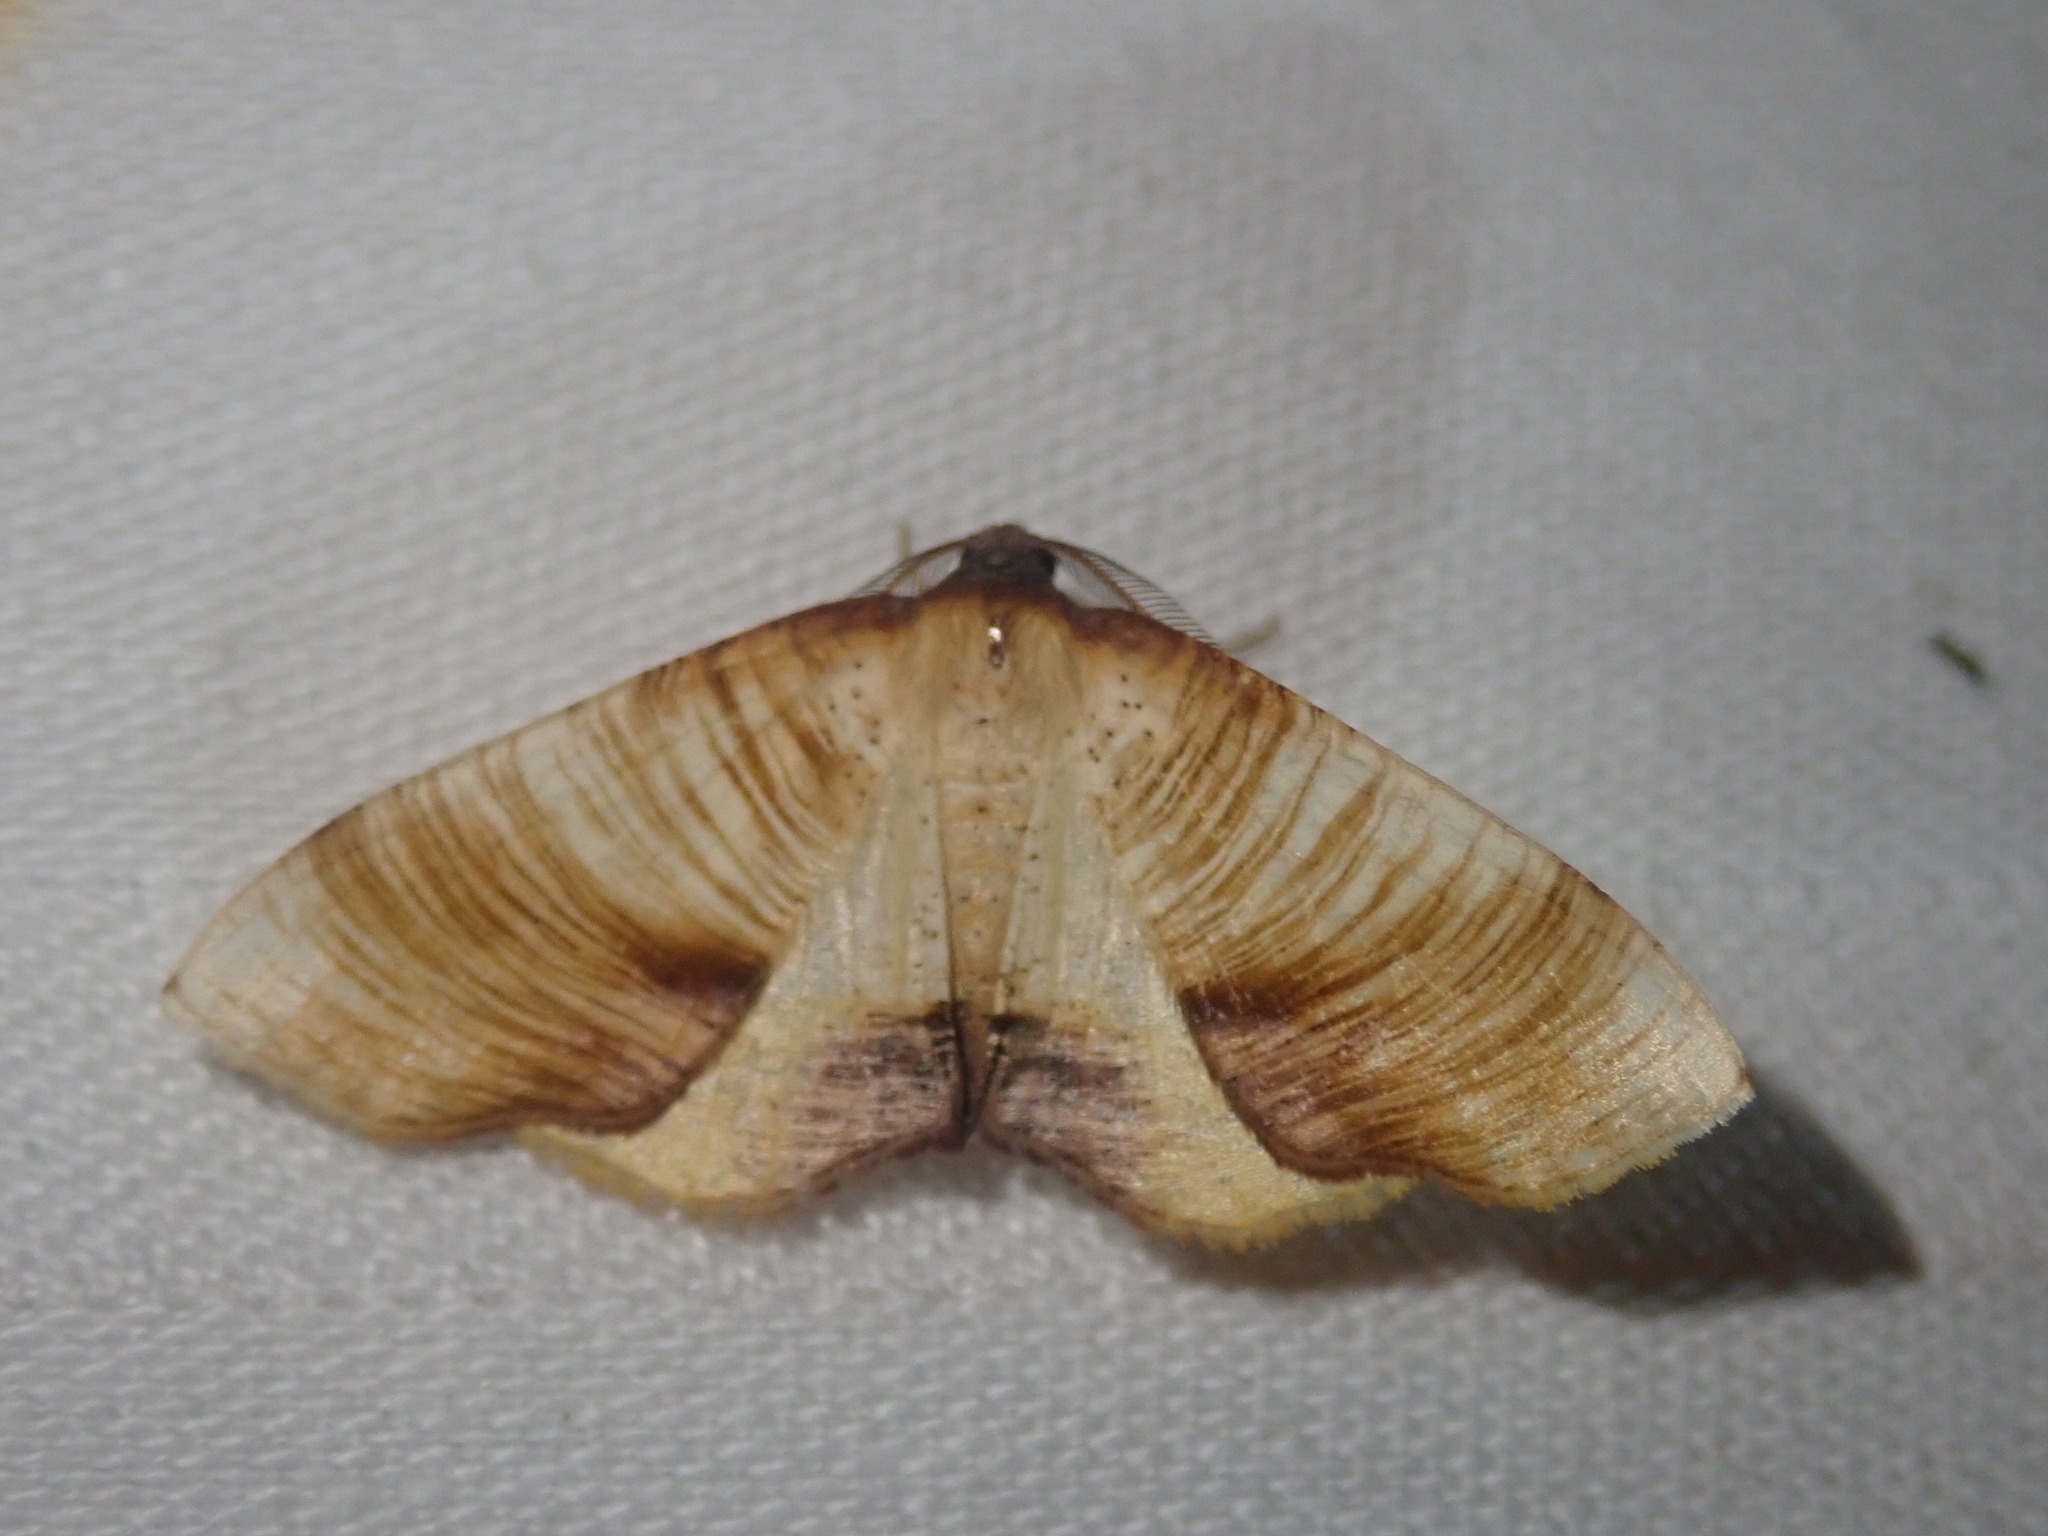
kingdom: Animalia
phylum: Arthropoda
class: Insecta
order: Lepidoptera
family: Geometridae
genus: Plagodis
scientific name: Plagodis dolabraria
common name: Scorched wing
